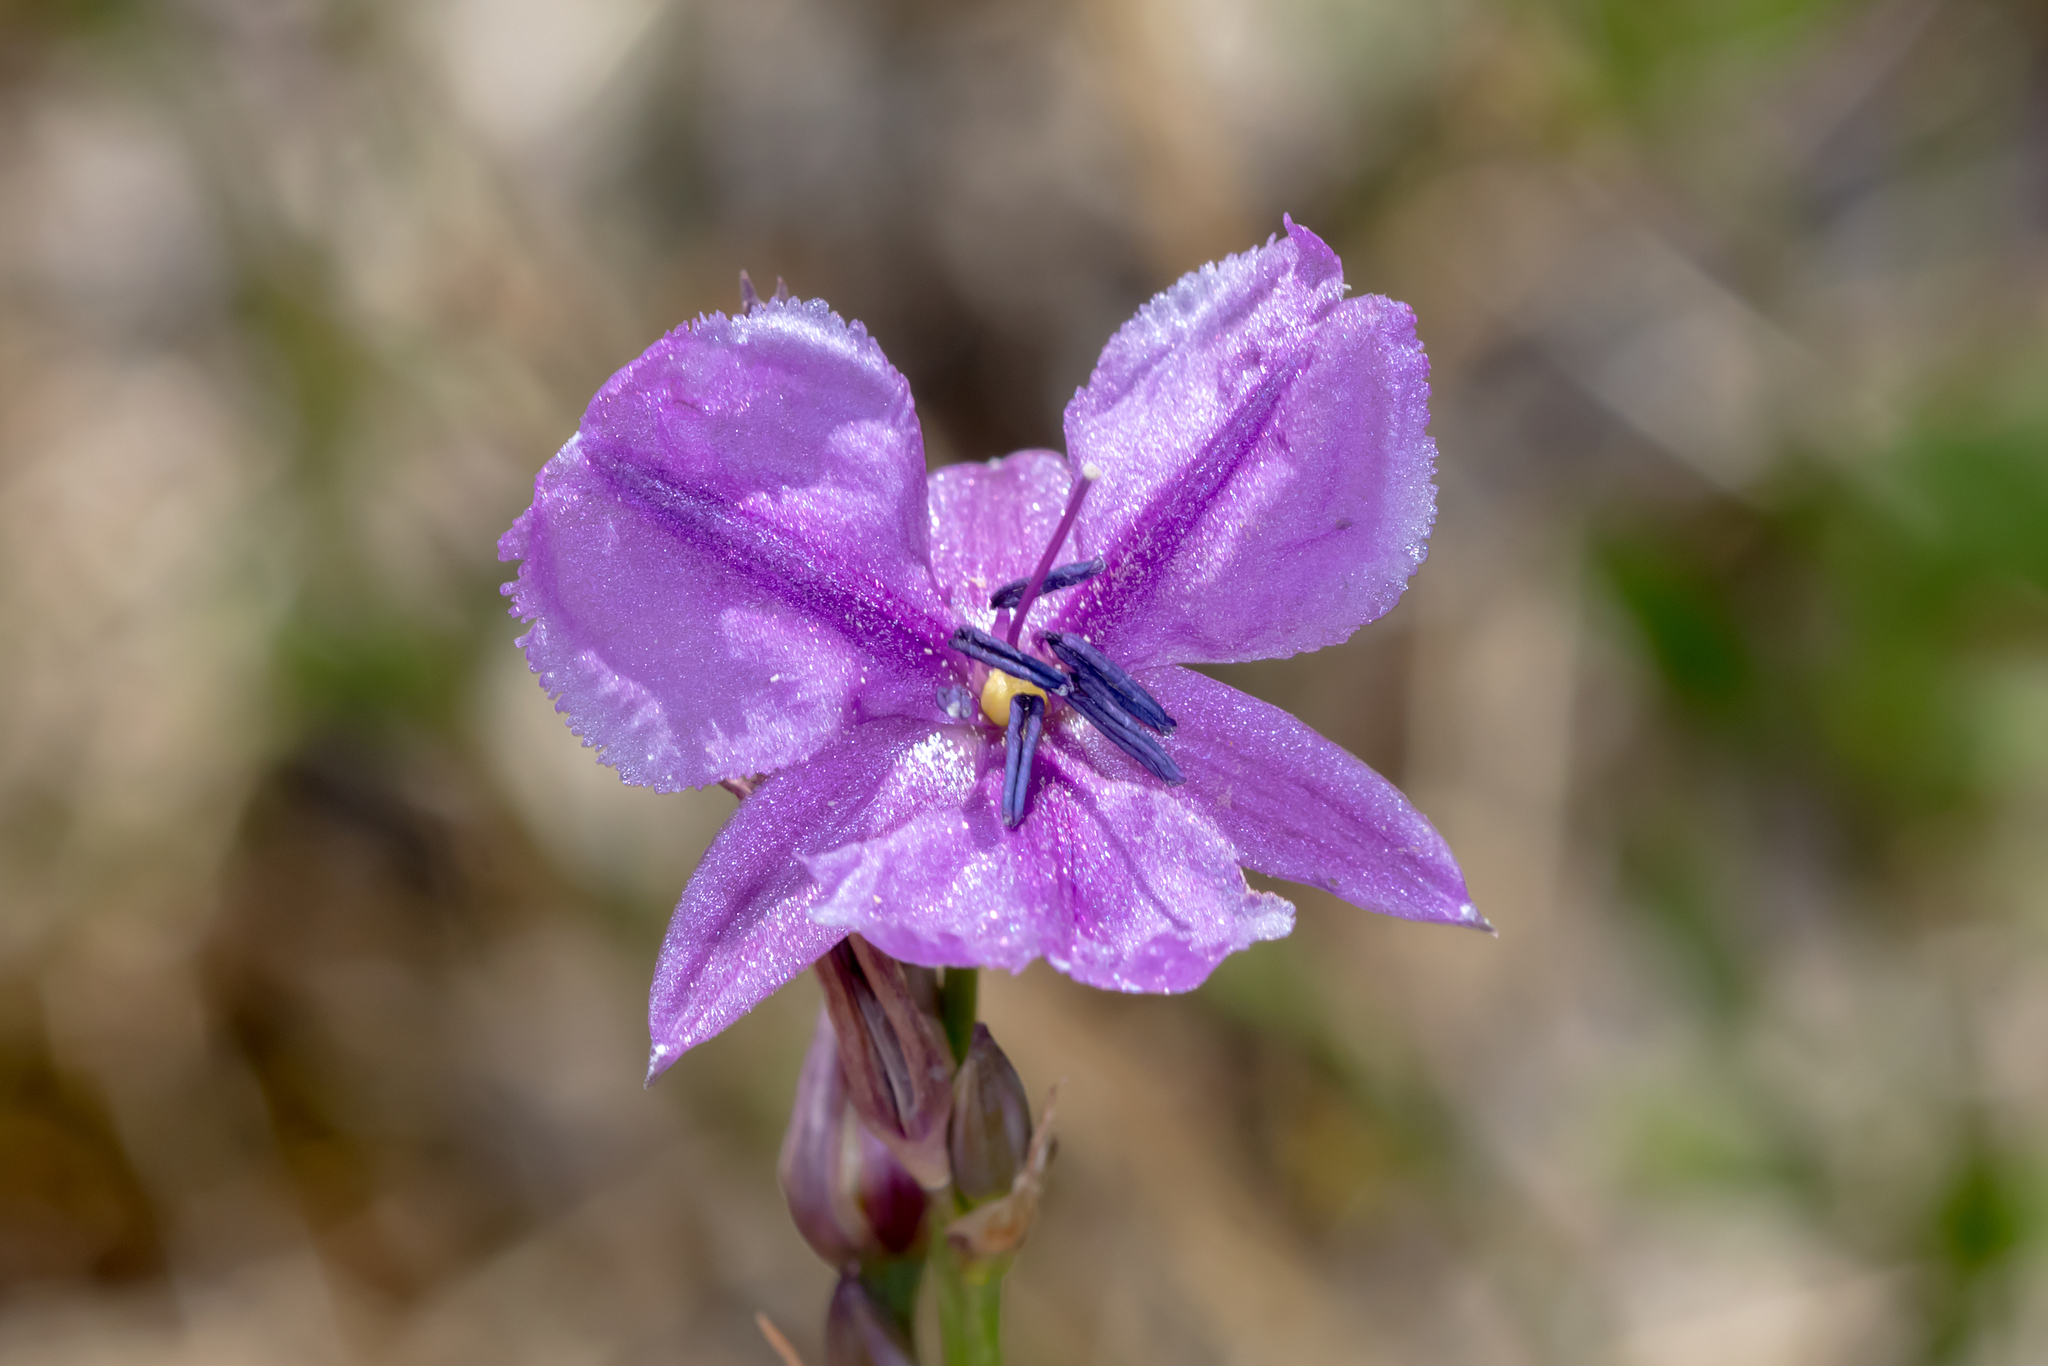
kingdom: Plantae
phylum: Tracheophyta
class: Liliopsida
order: Asparagales
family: Asparagaceae
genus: Arthropodium
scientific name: Arthropodium strictum
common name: Chocolate-lily
